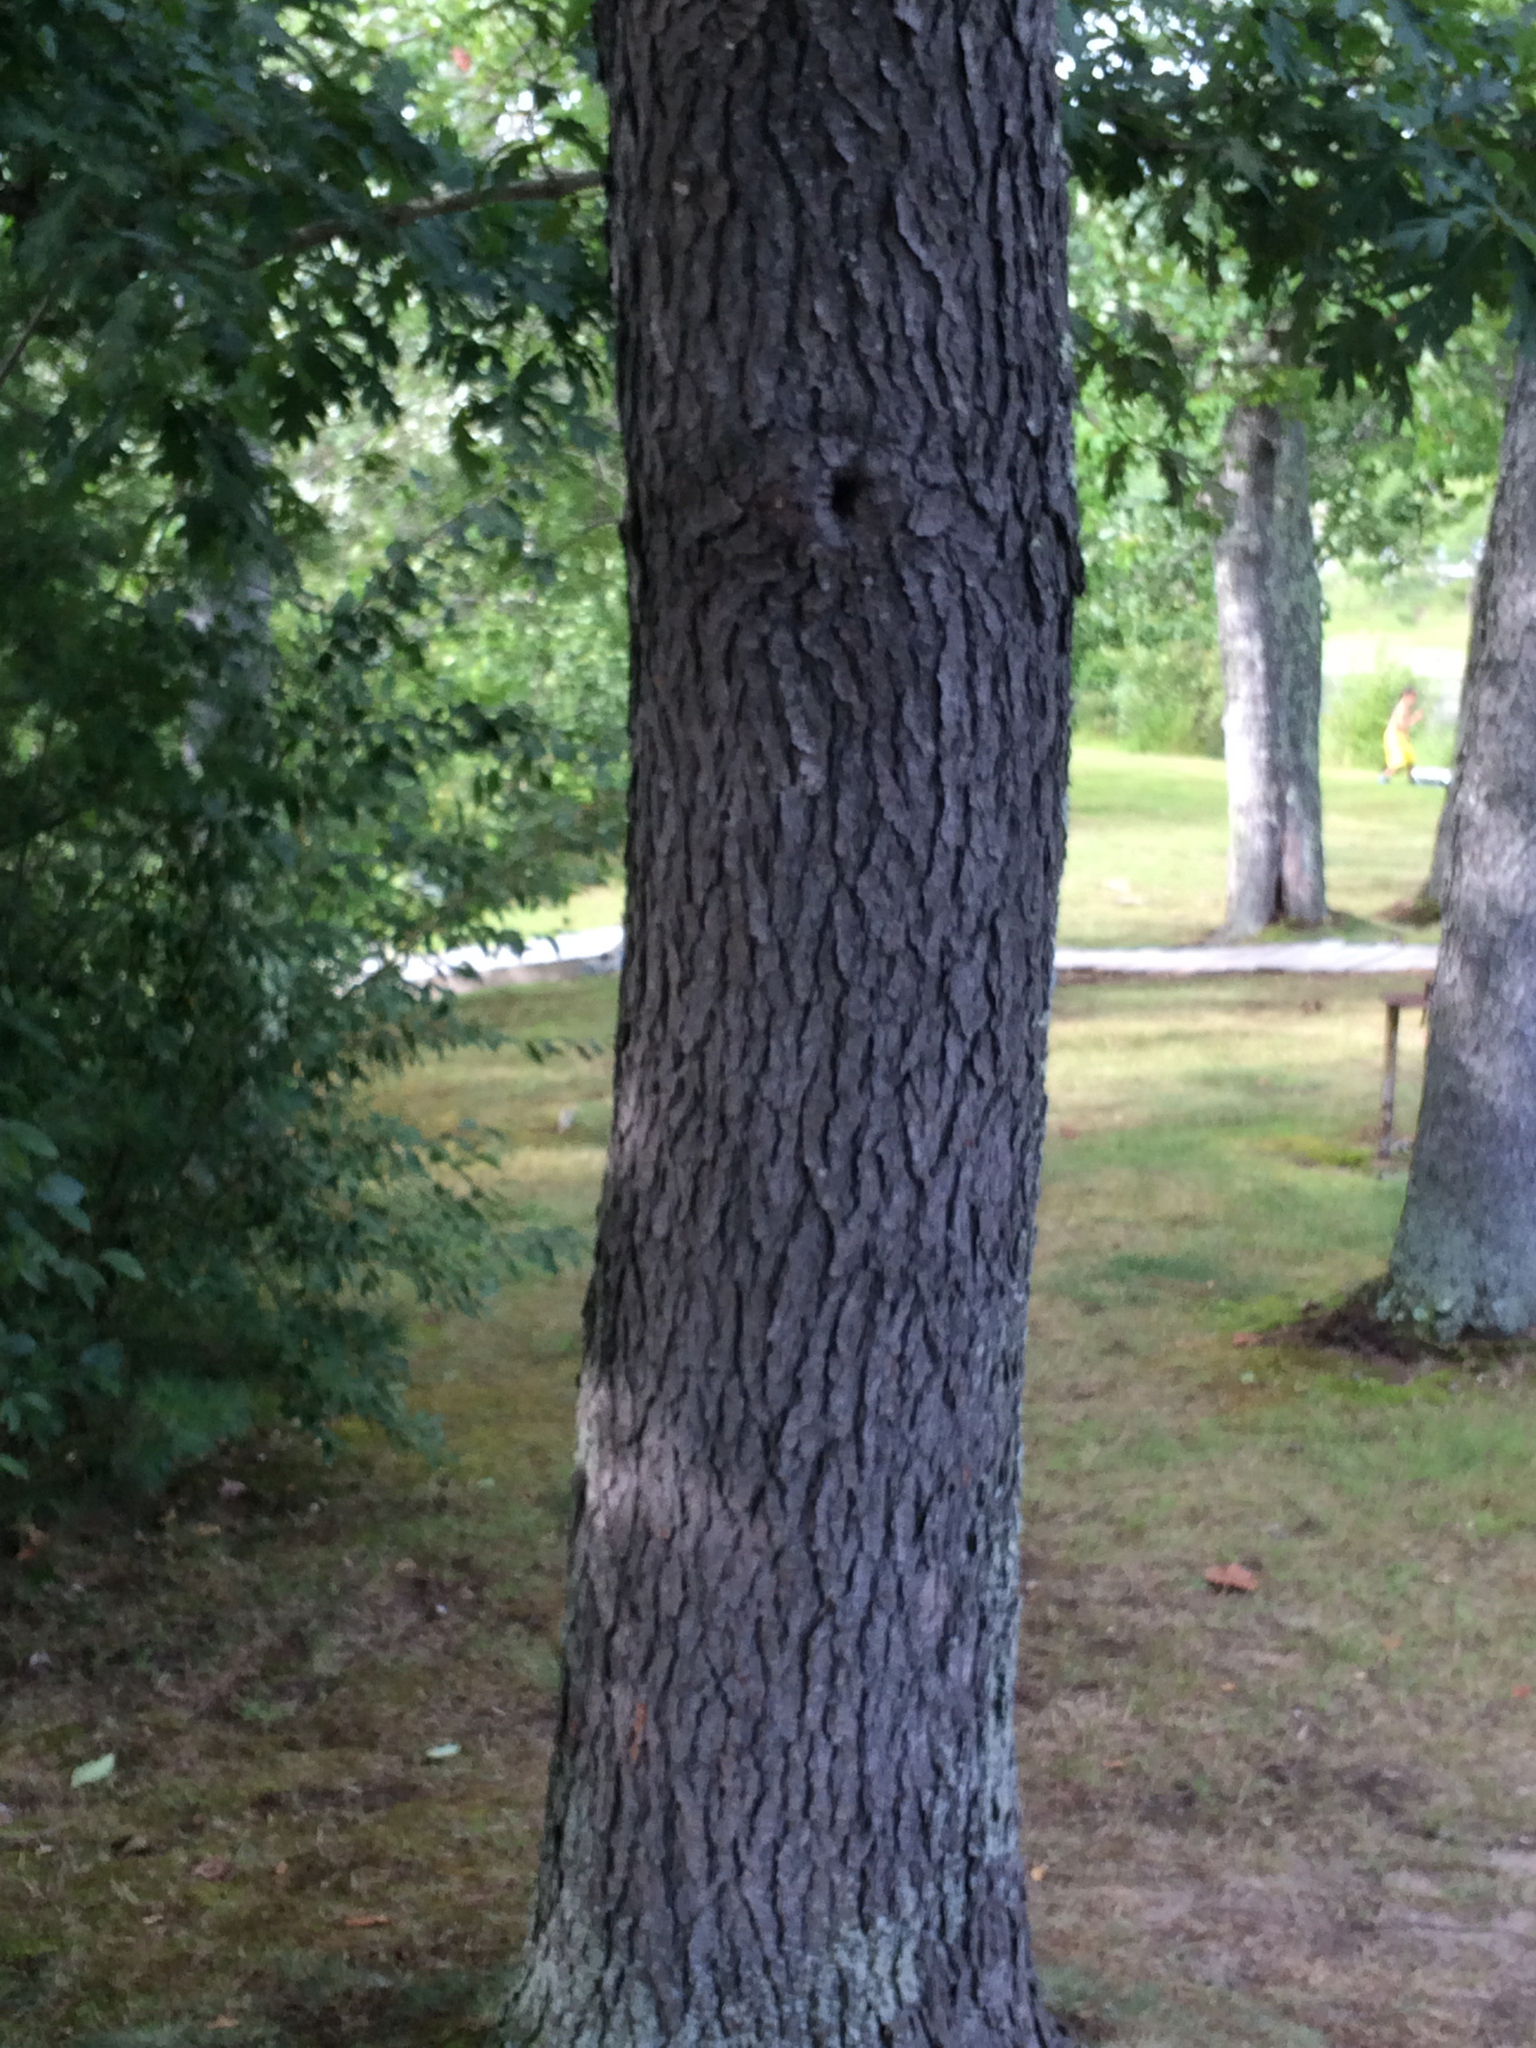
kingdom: Plantae
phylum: Tracheophyta
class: Magnoliopsida
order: Rosales
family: Rosaceae
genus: Prunus
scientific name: Prunus serotina
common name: Black cherry
